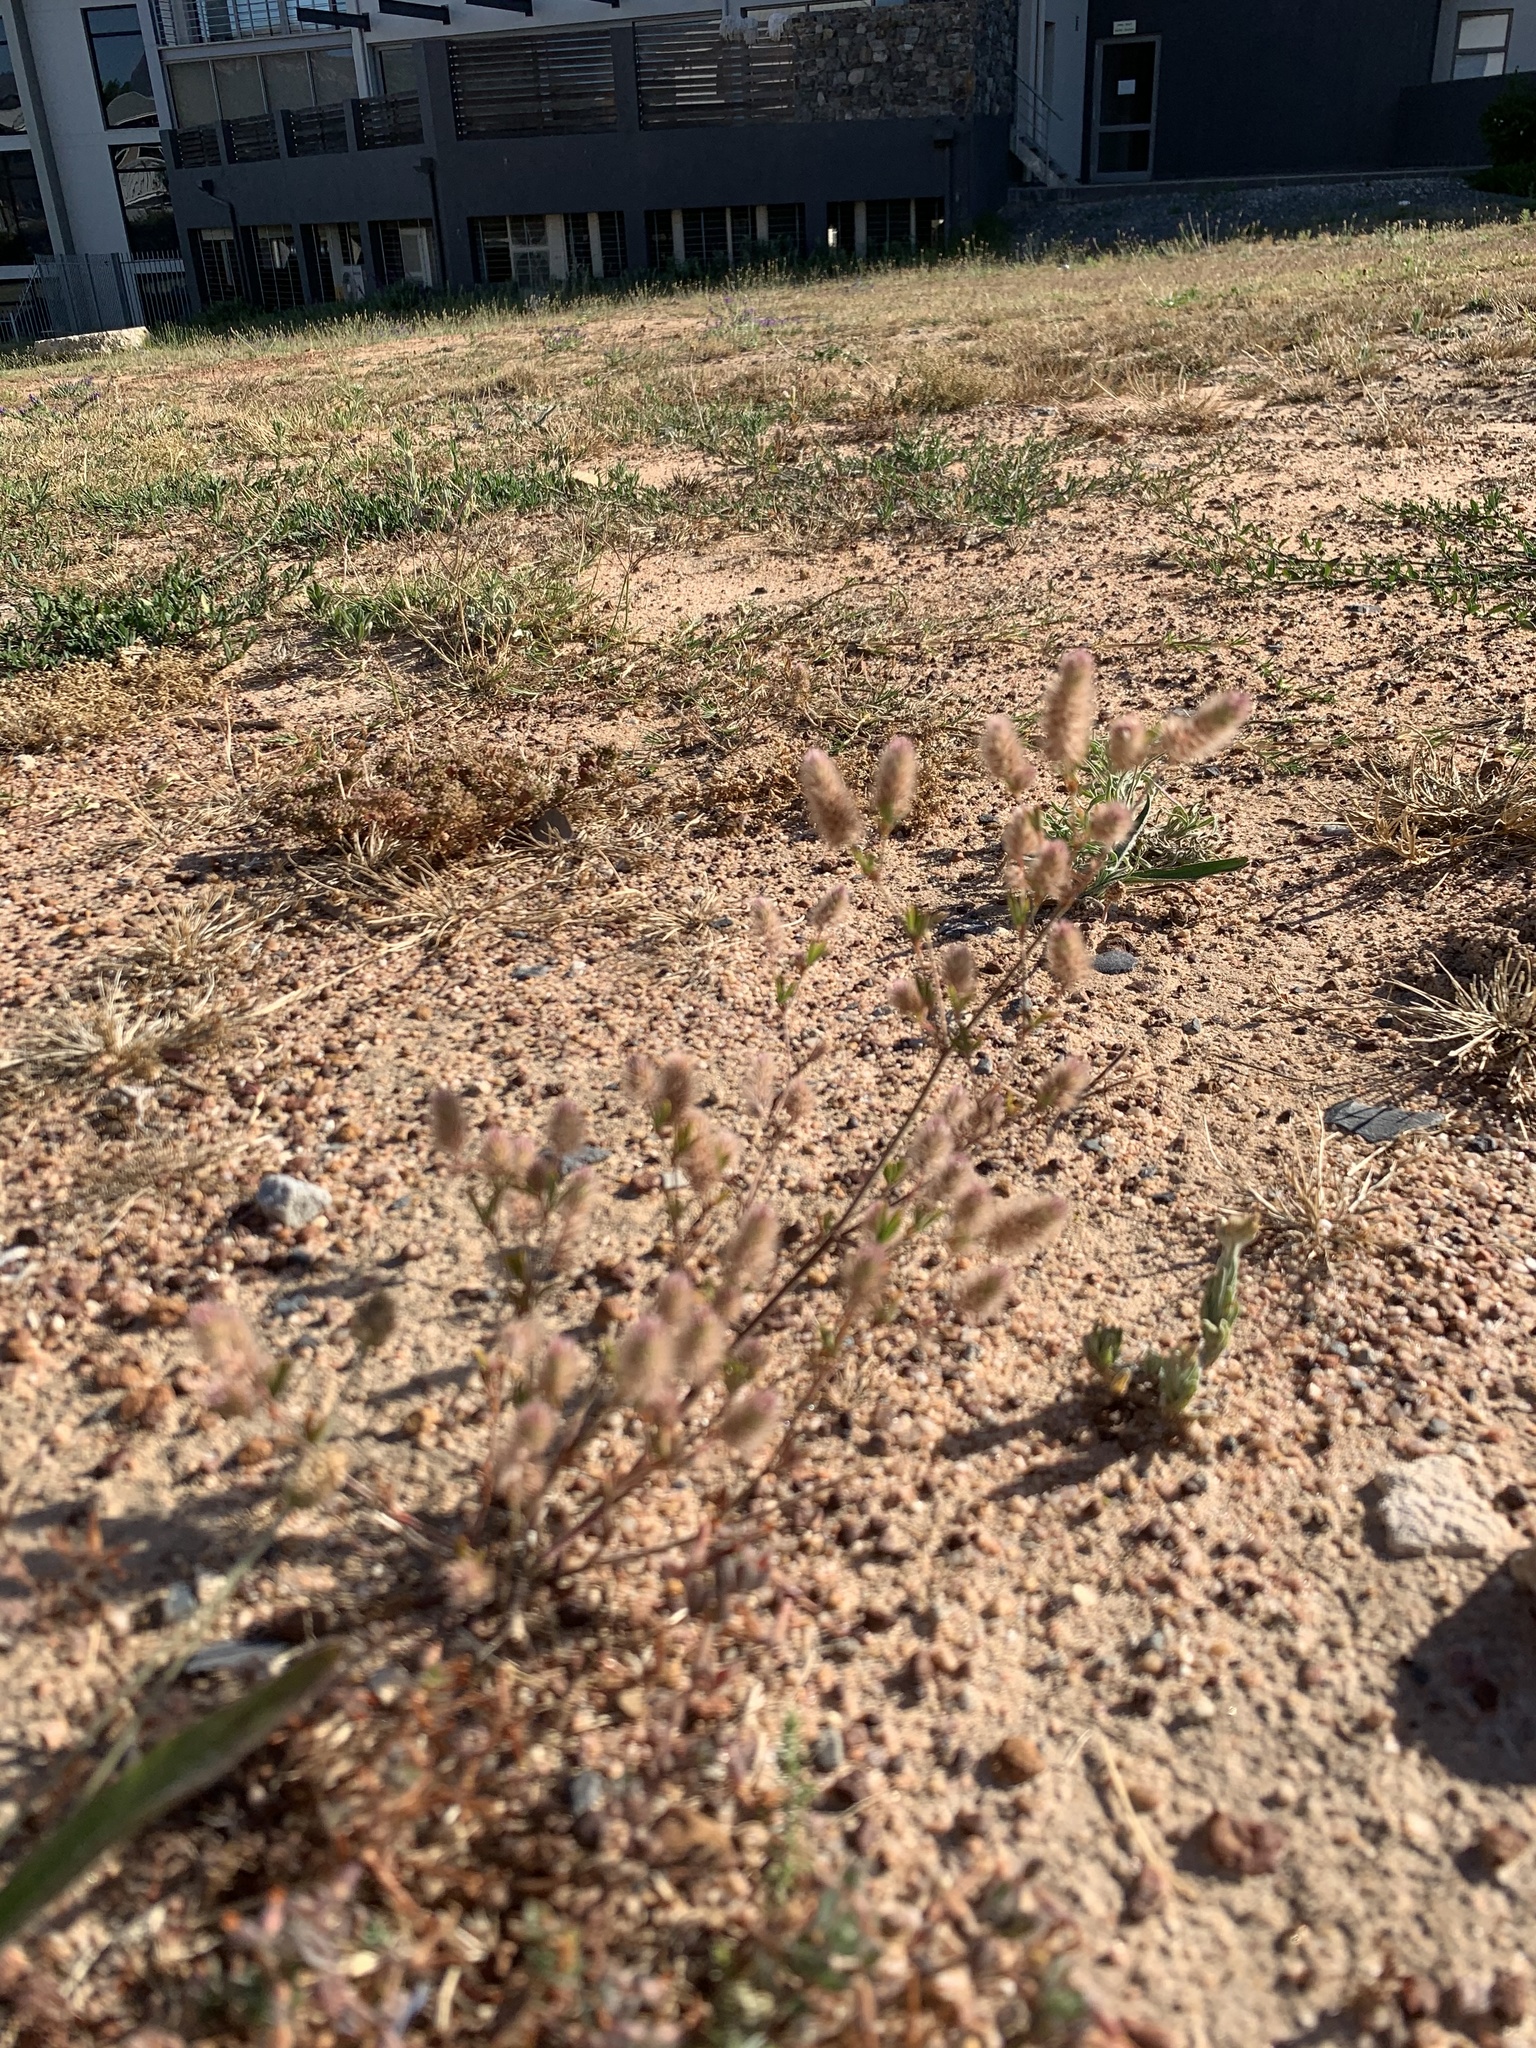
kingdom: Plantae
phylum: Tracheophyta
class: Magnoliopsida
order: Fabales
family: Fabaceae
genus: Trifolium
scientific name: Trifolium arvense
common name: Hare's-foot clover
